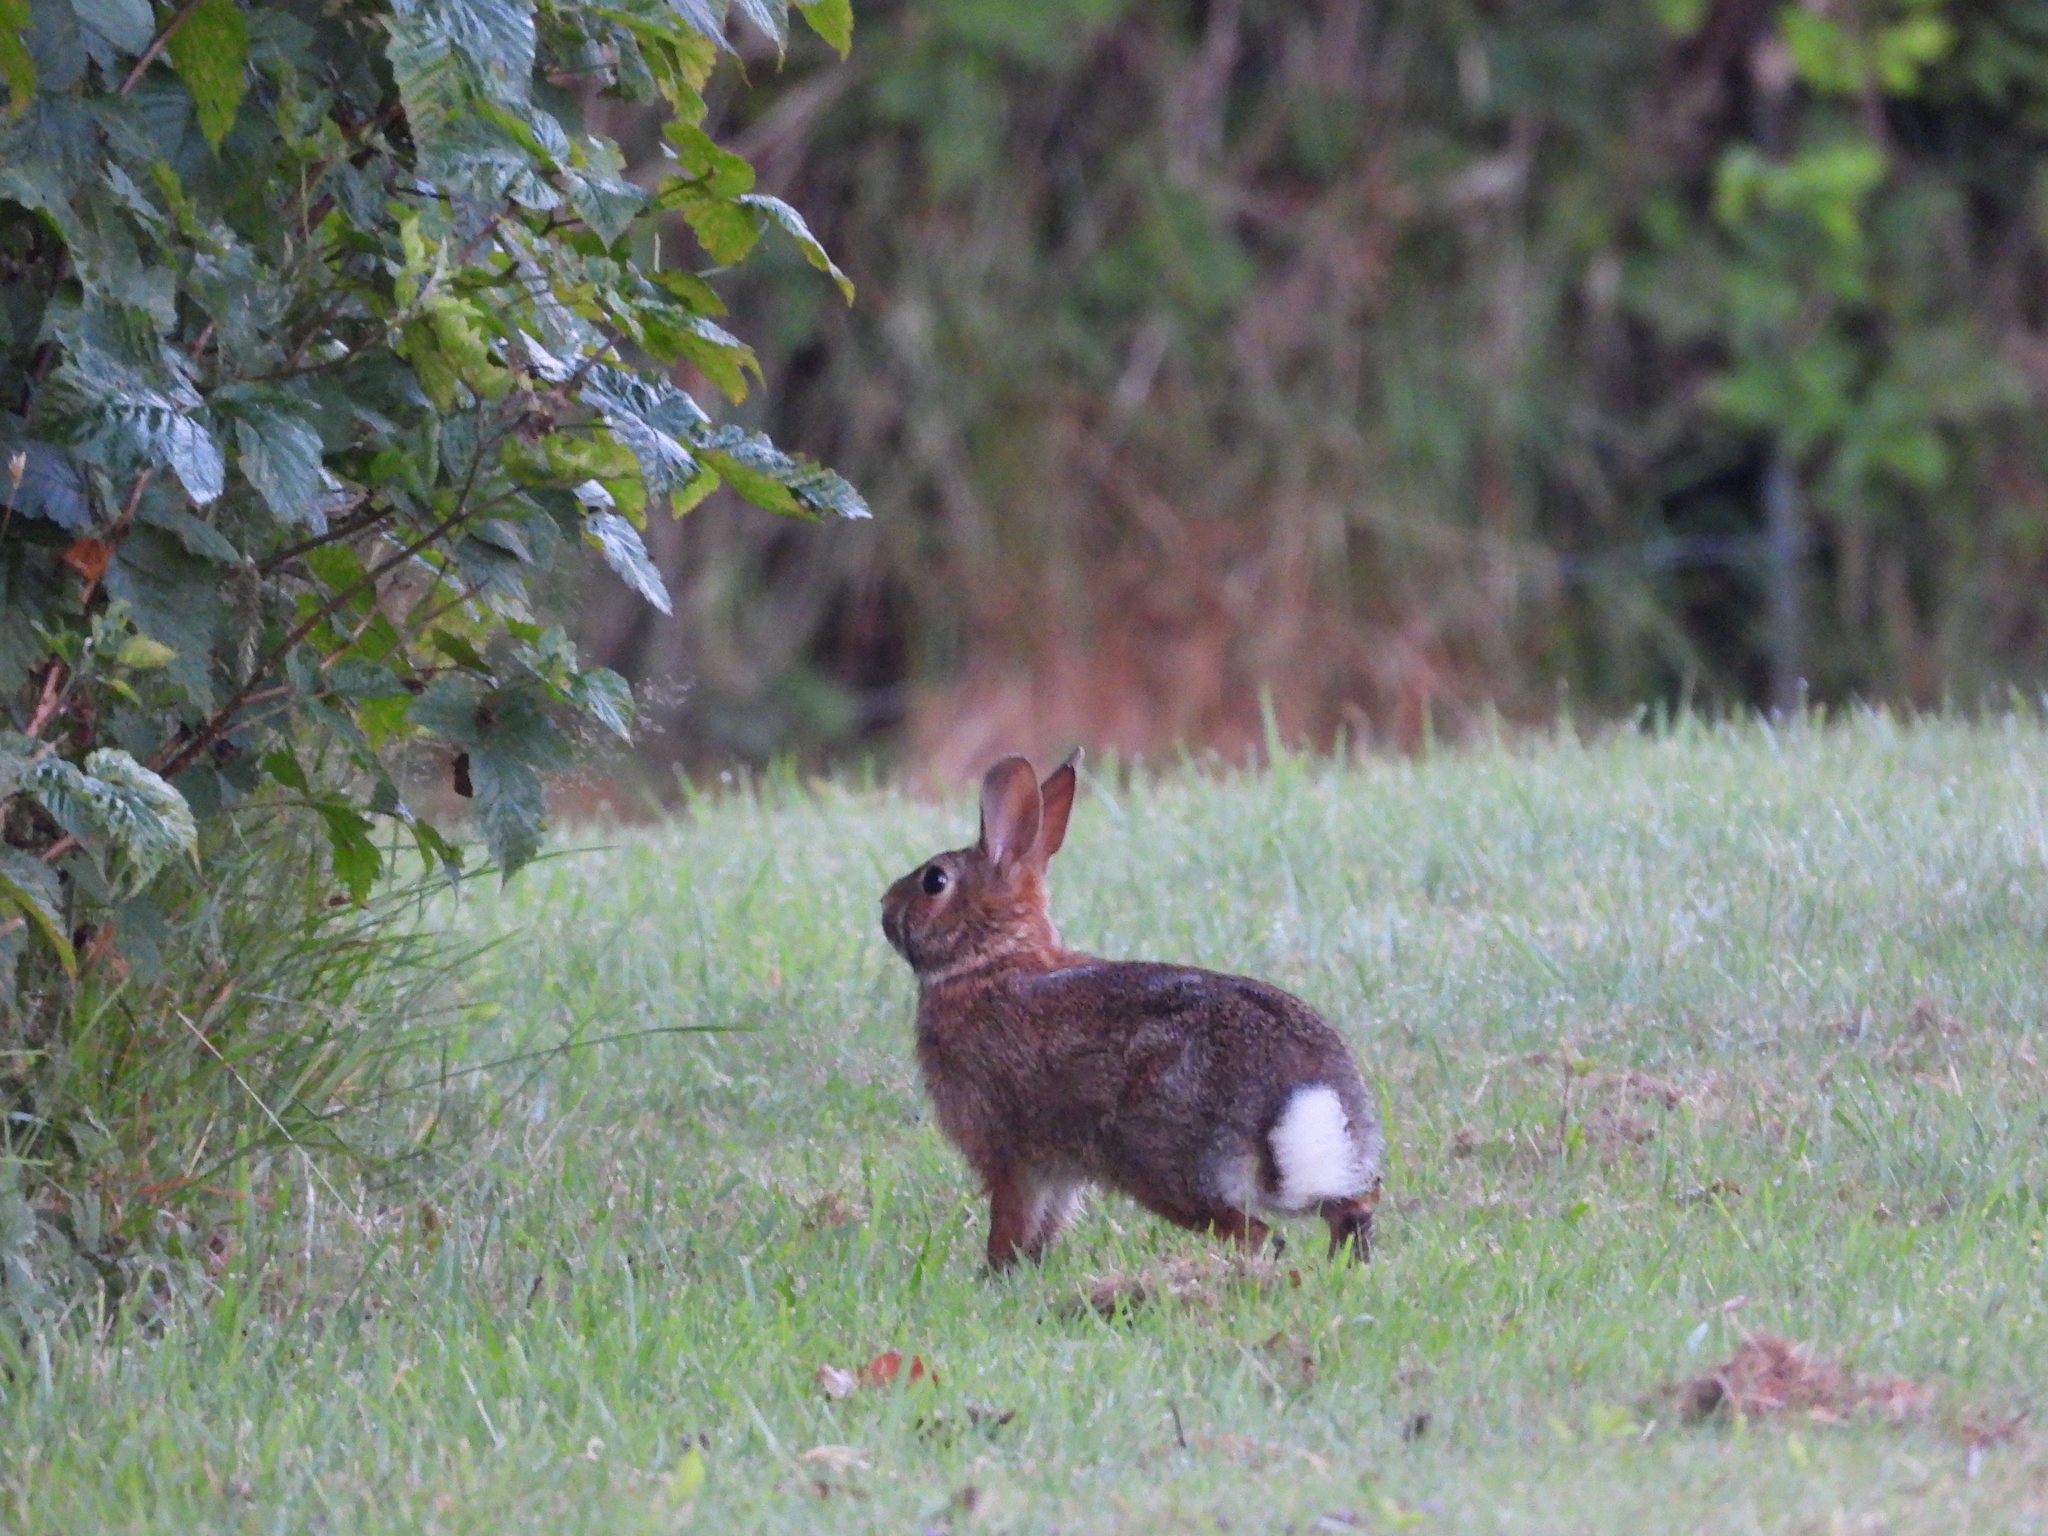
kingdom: Animalia
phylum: Chordata
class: Mammalia
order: Lagomorpha
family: Leporidae
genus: Sylvilagus
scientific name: Sylvilagus floridanus
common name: Eastern cottontail
